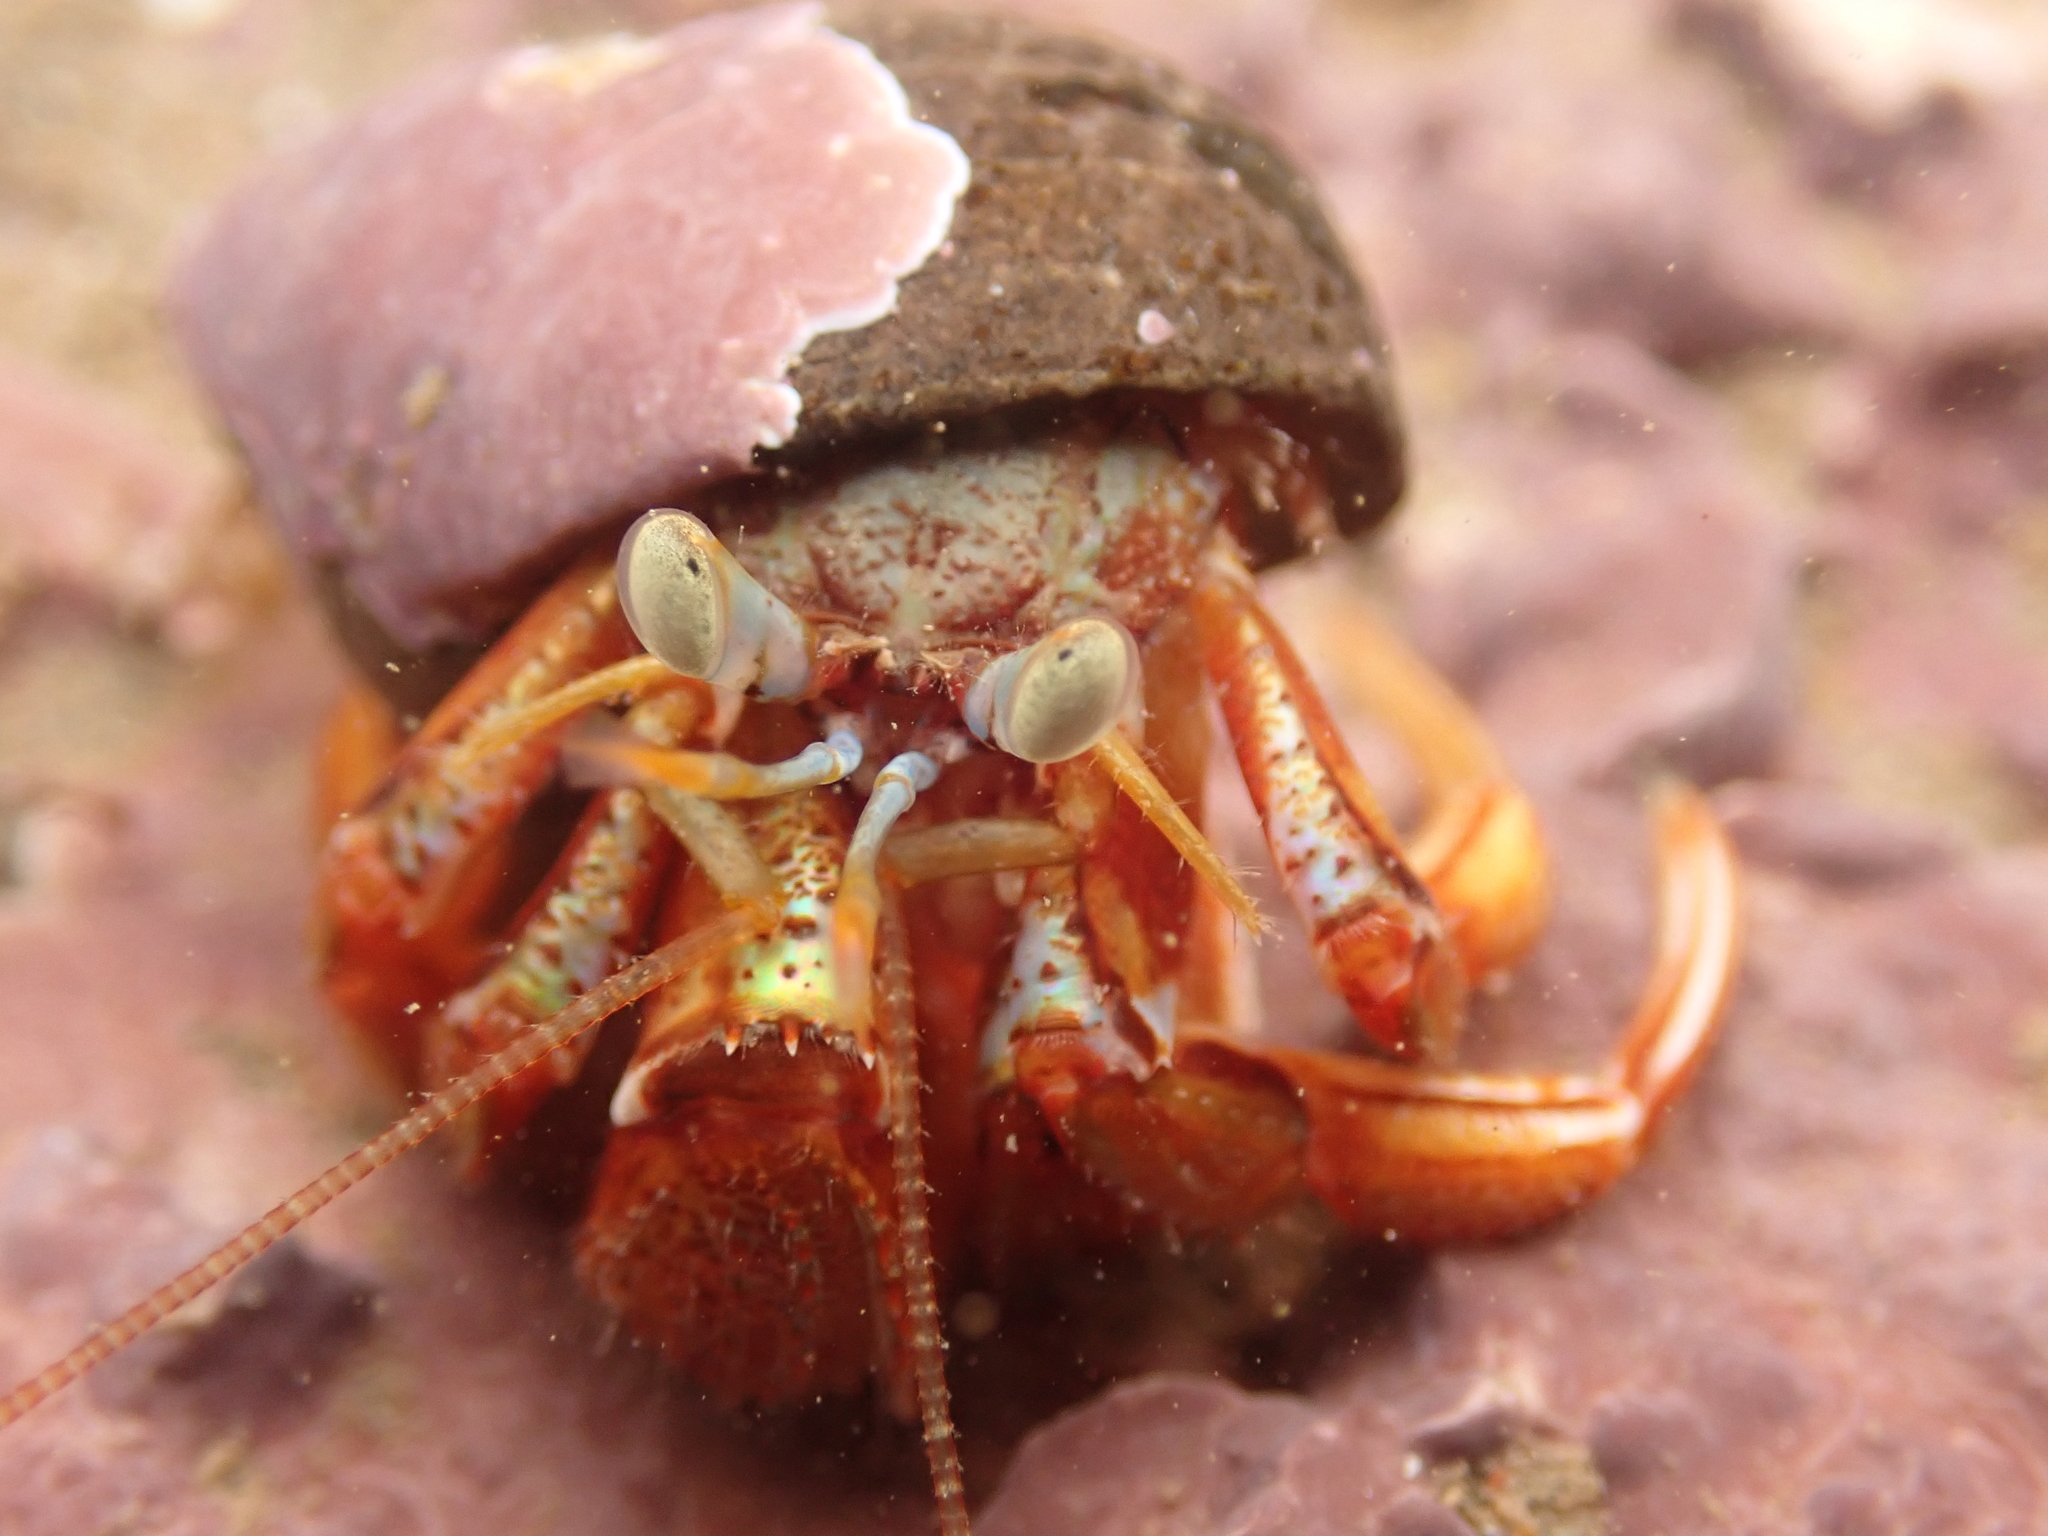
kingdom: Animalia
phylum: Arthropoda
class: Malacostraca
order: Decapoda
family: Paguridae
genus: Pagurus
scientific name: Pagurus acadianus
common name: Acadian hermit crab
